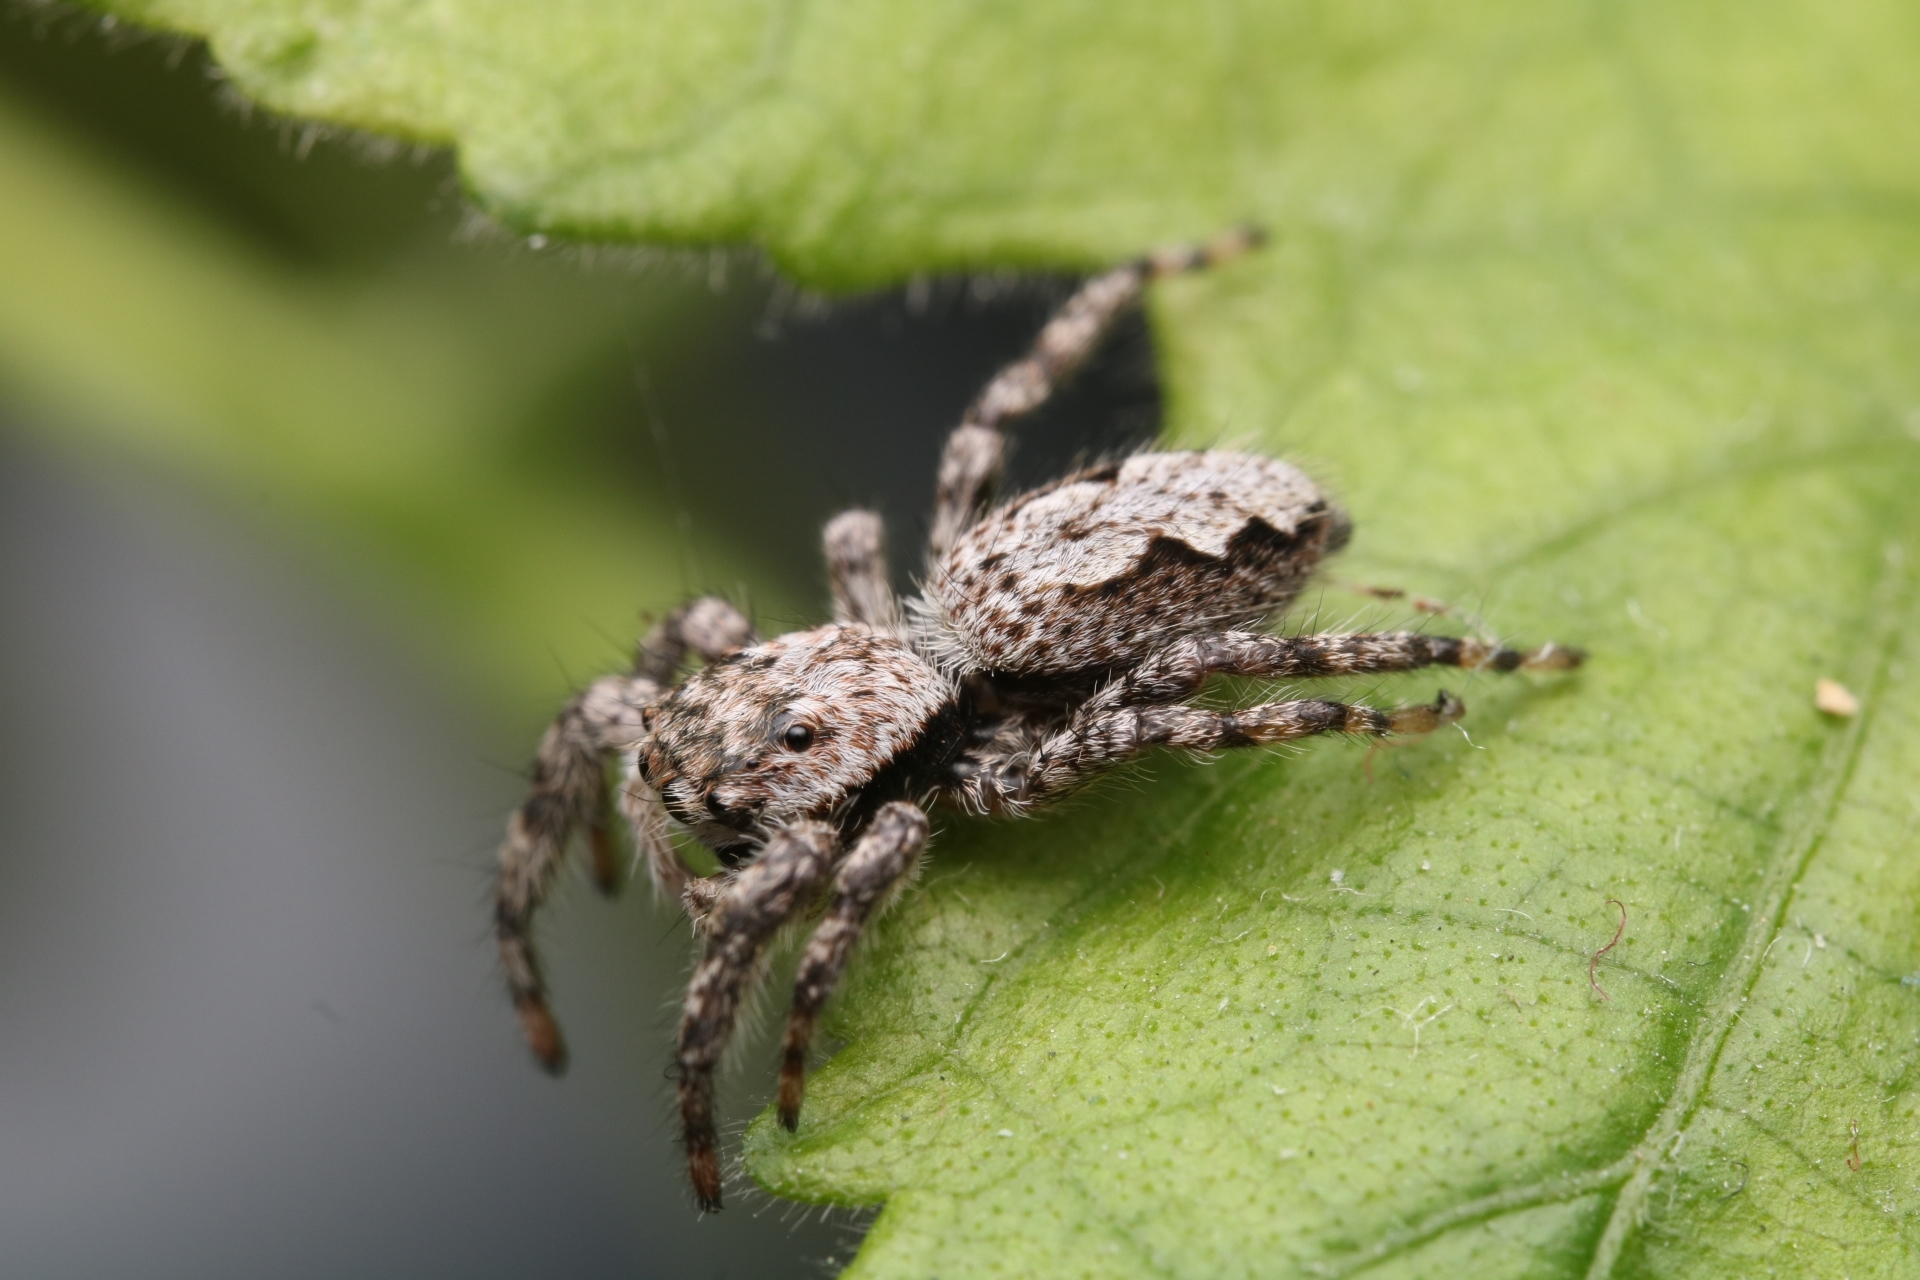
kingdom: Animalia
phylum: Arthropoda
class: Arachnida
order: Araneae
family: Salticidae
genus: Platycryptus
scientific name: Platycryptus undatus
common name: Tan jumping spider
